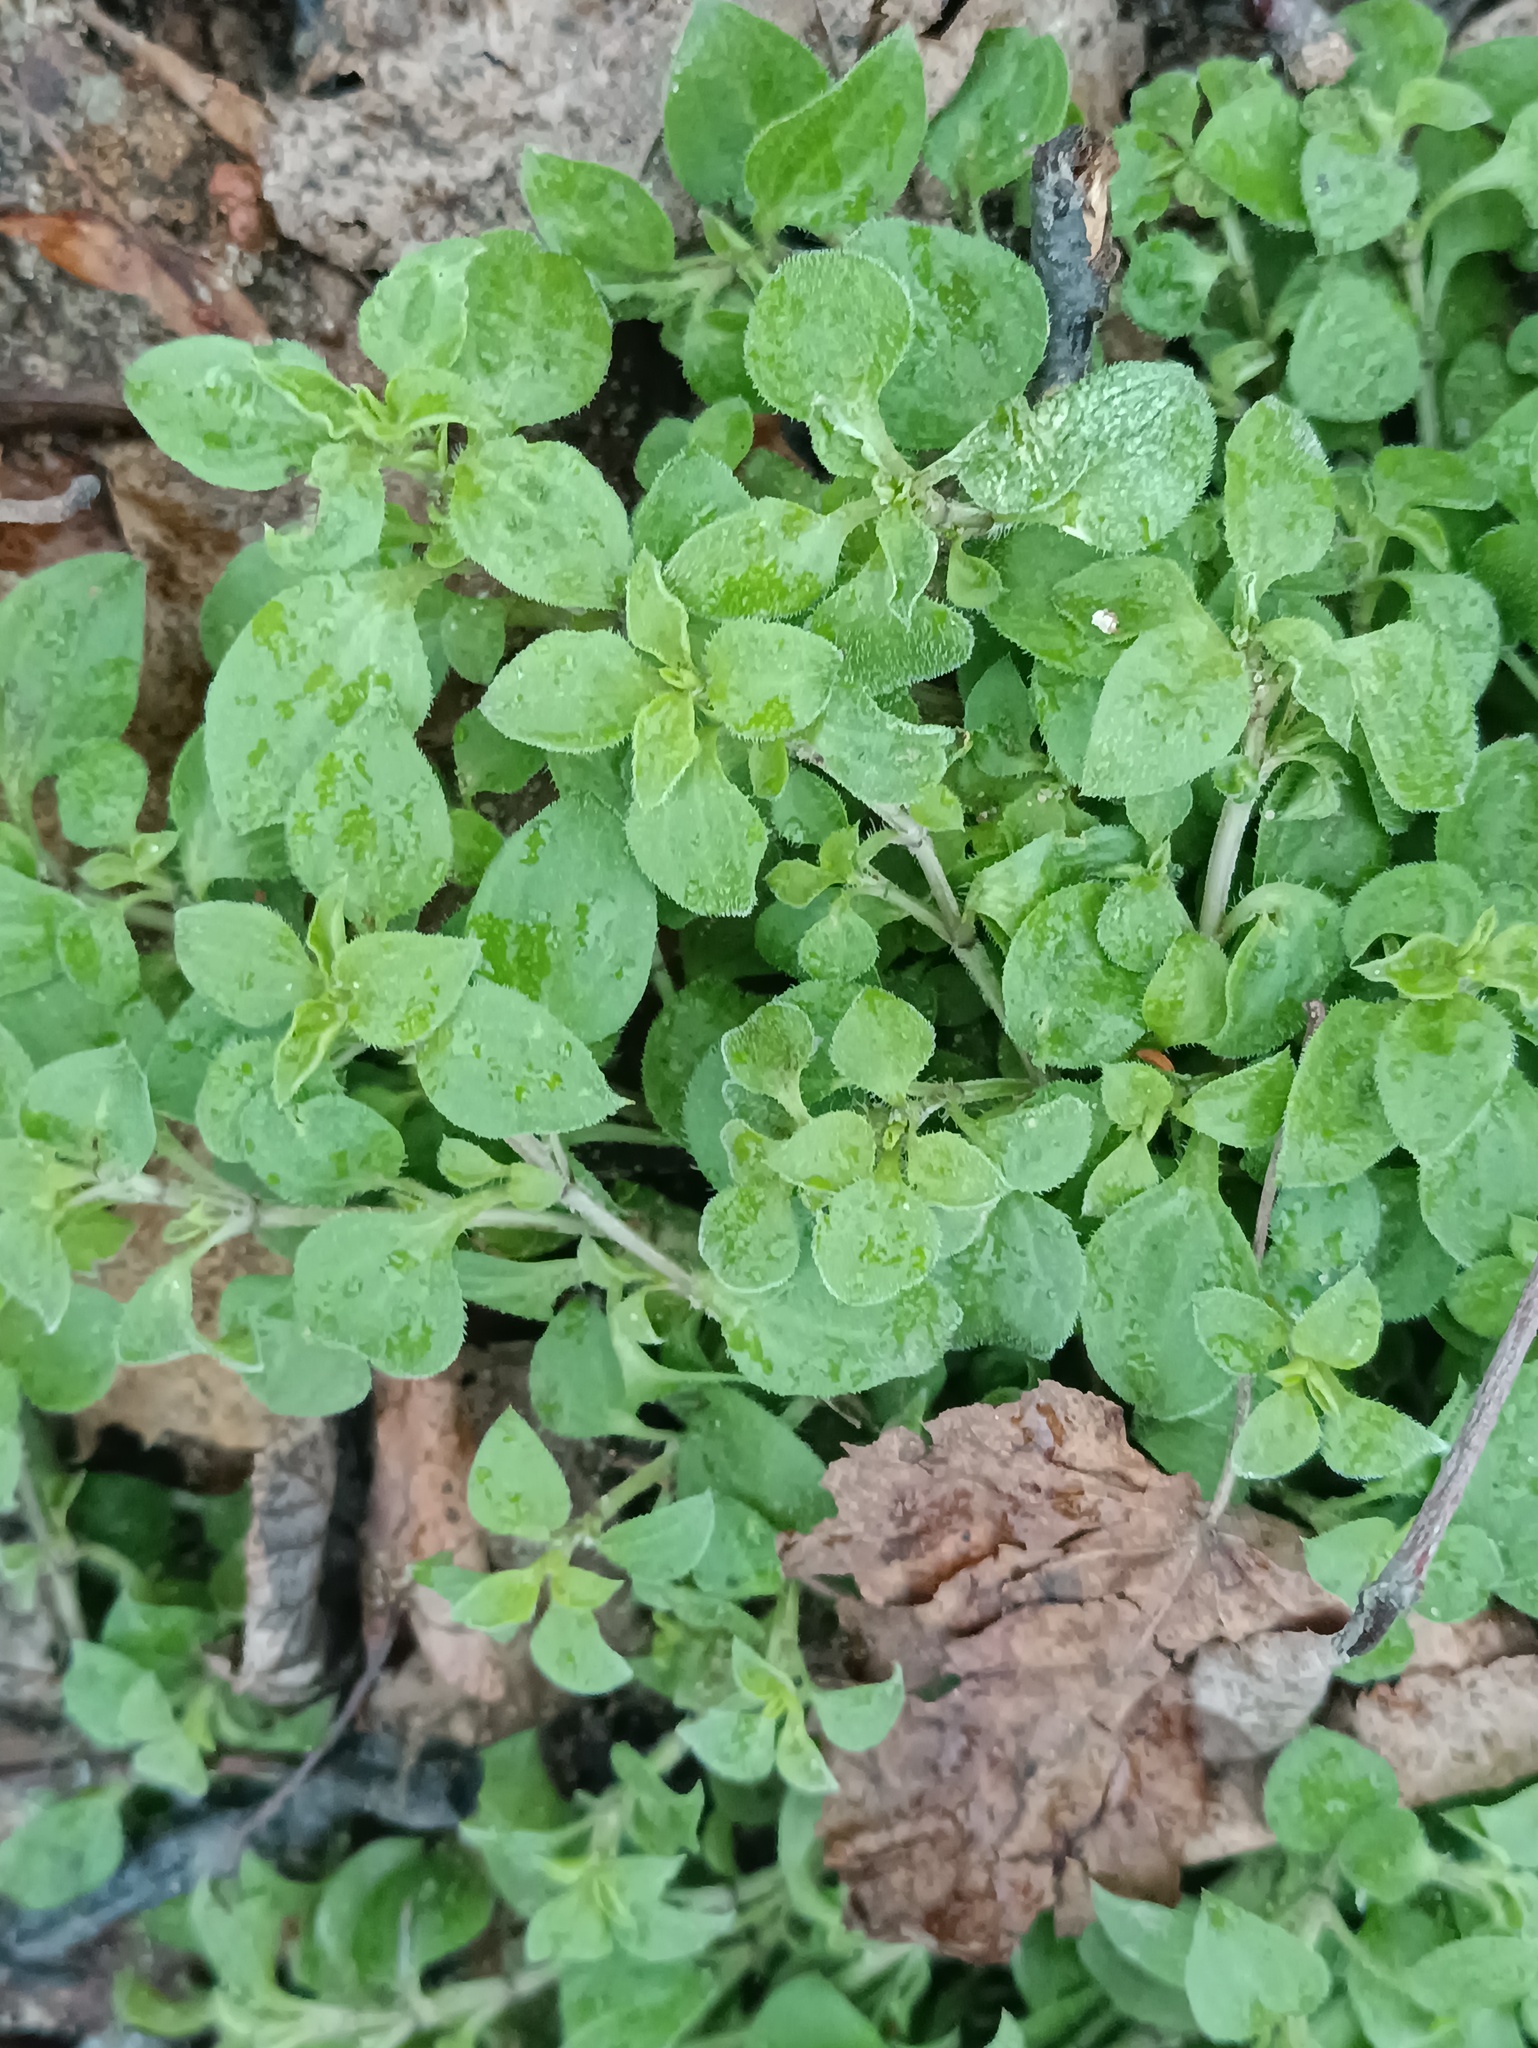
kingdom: Plantae
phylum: Tracheophyta
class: Magnoliopsida
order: Caryophyllales
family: Caryophyllaceae
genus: Moehringia
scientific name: Moehringia trinervia
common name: Three-nerved sandwort
